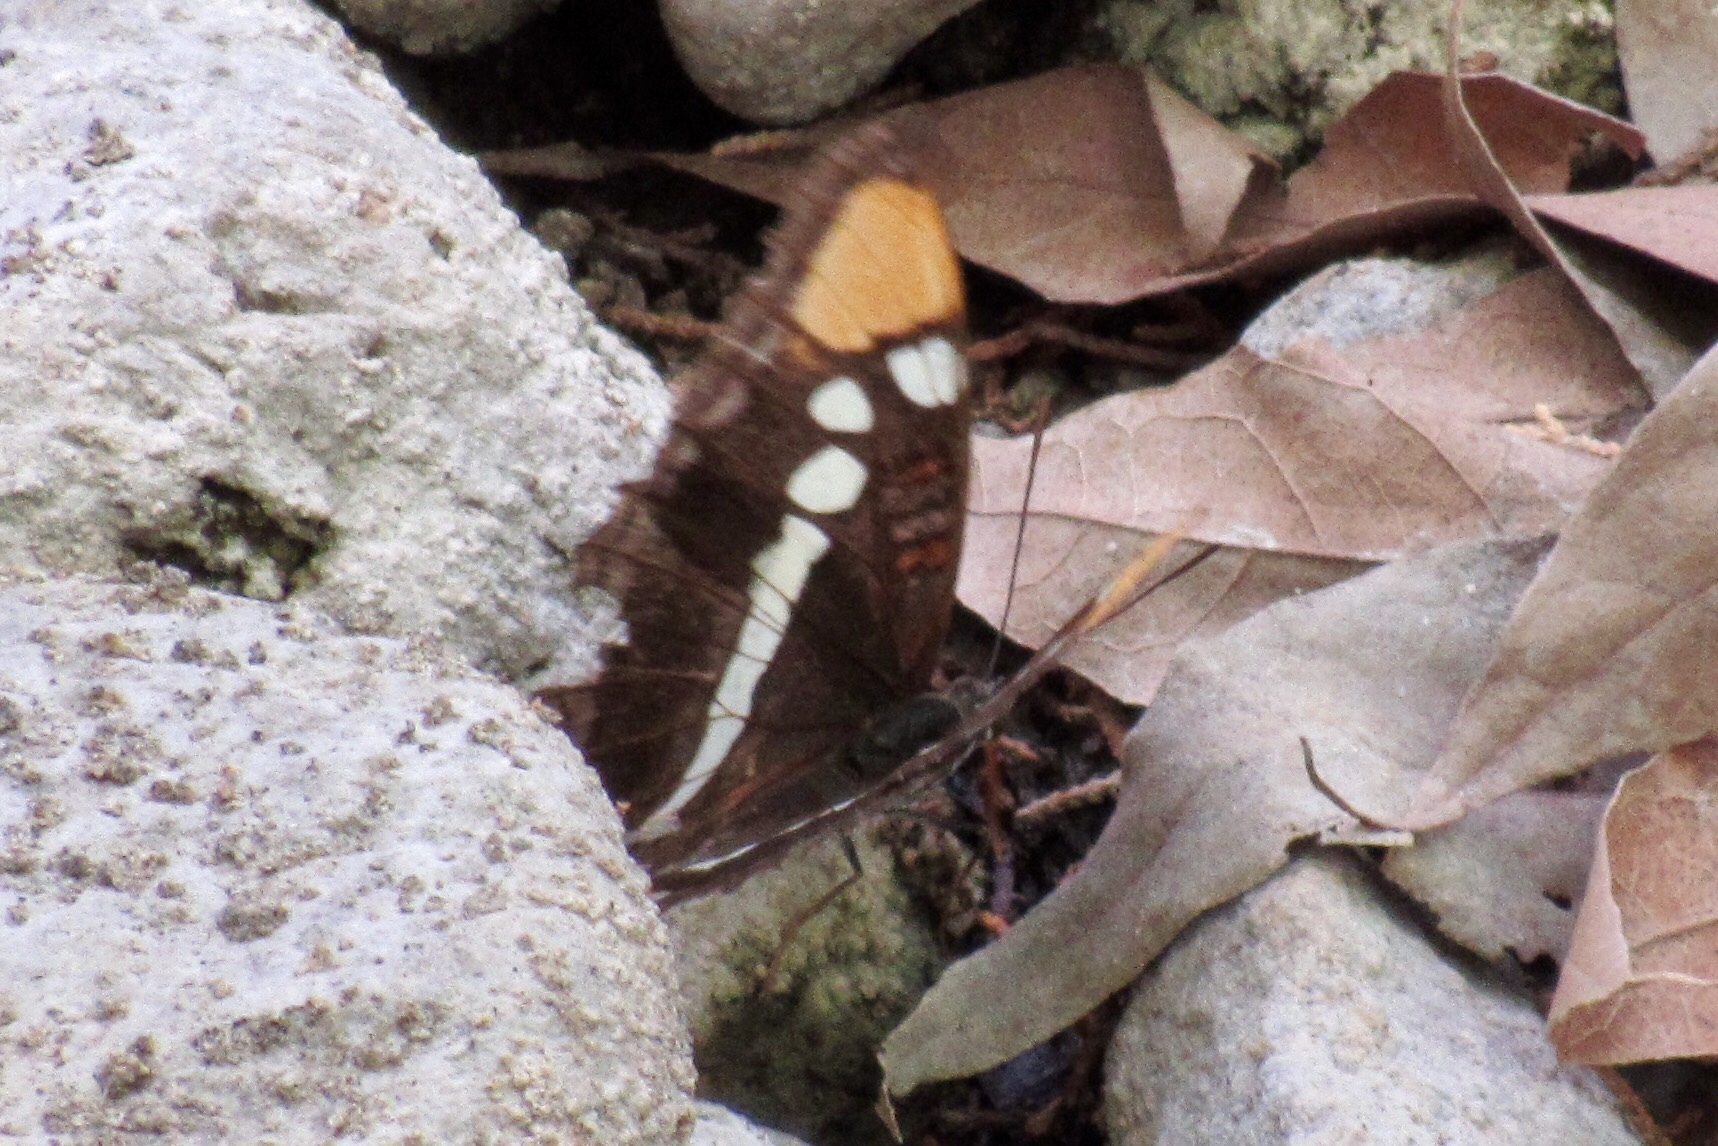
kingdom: Animalia
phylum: Arthropoda
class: Insecta
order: Lepidoptera
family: Nymphalidae
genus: Limenitis
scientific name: Limenitis bredowii
